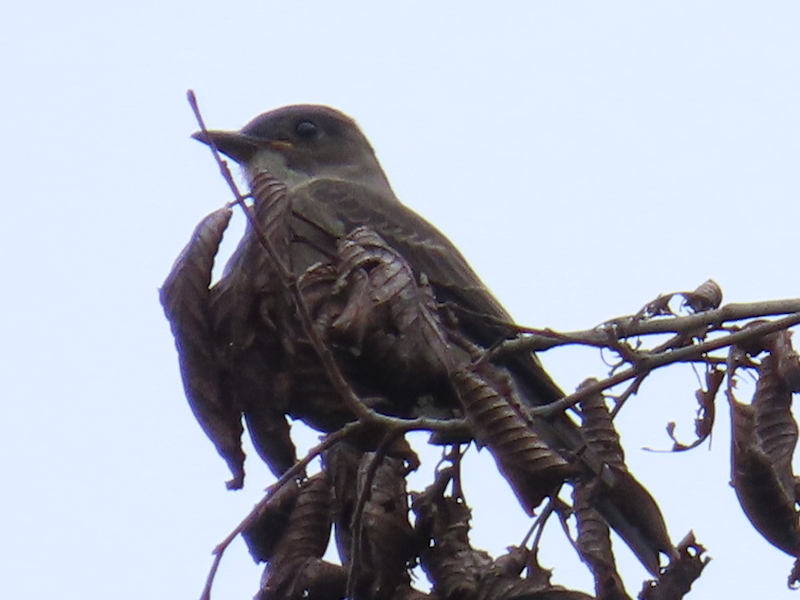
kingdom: Animalia
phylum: Chordata
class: Aves
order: Passeriformes
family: Tyrannidae
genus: Contopus
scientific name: Contopus cooperi
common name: Olive-sided flycatcher
